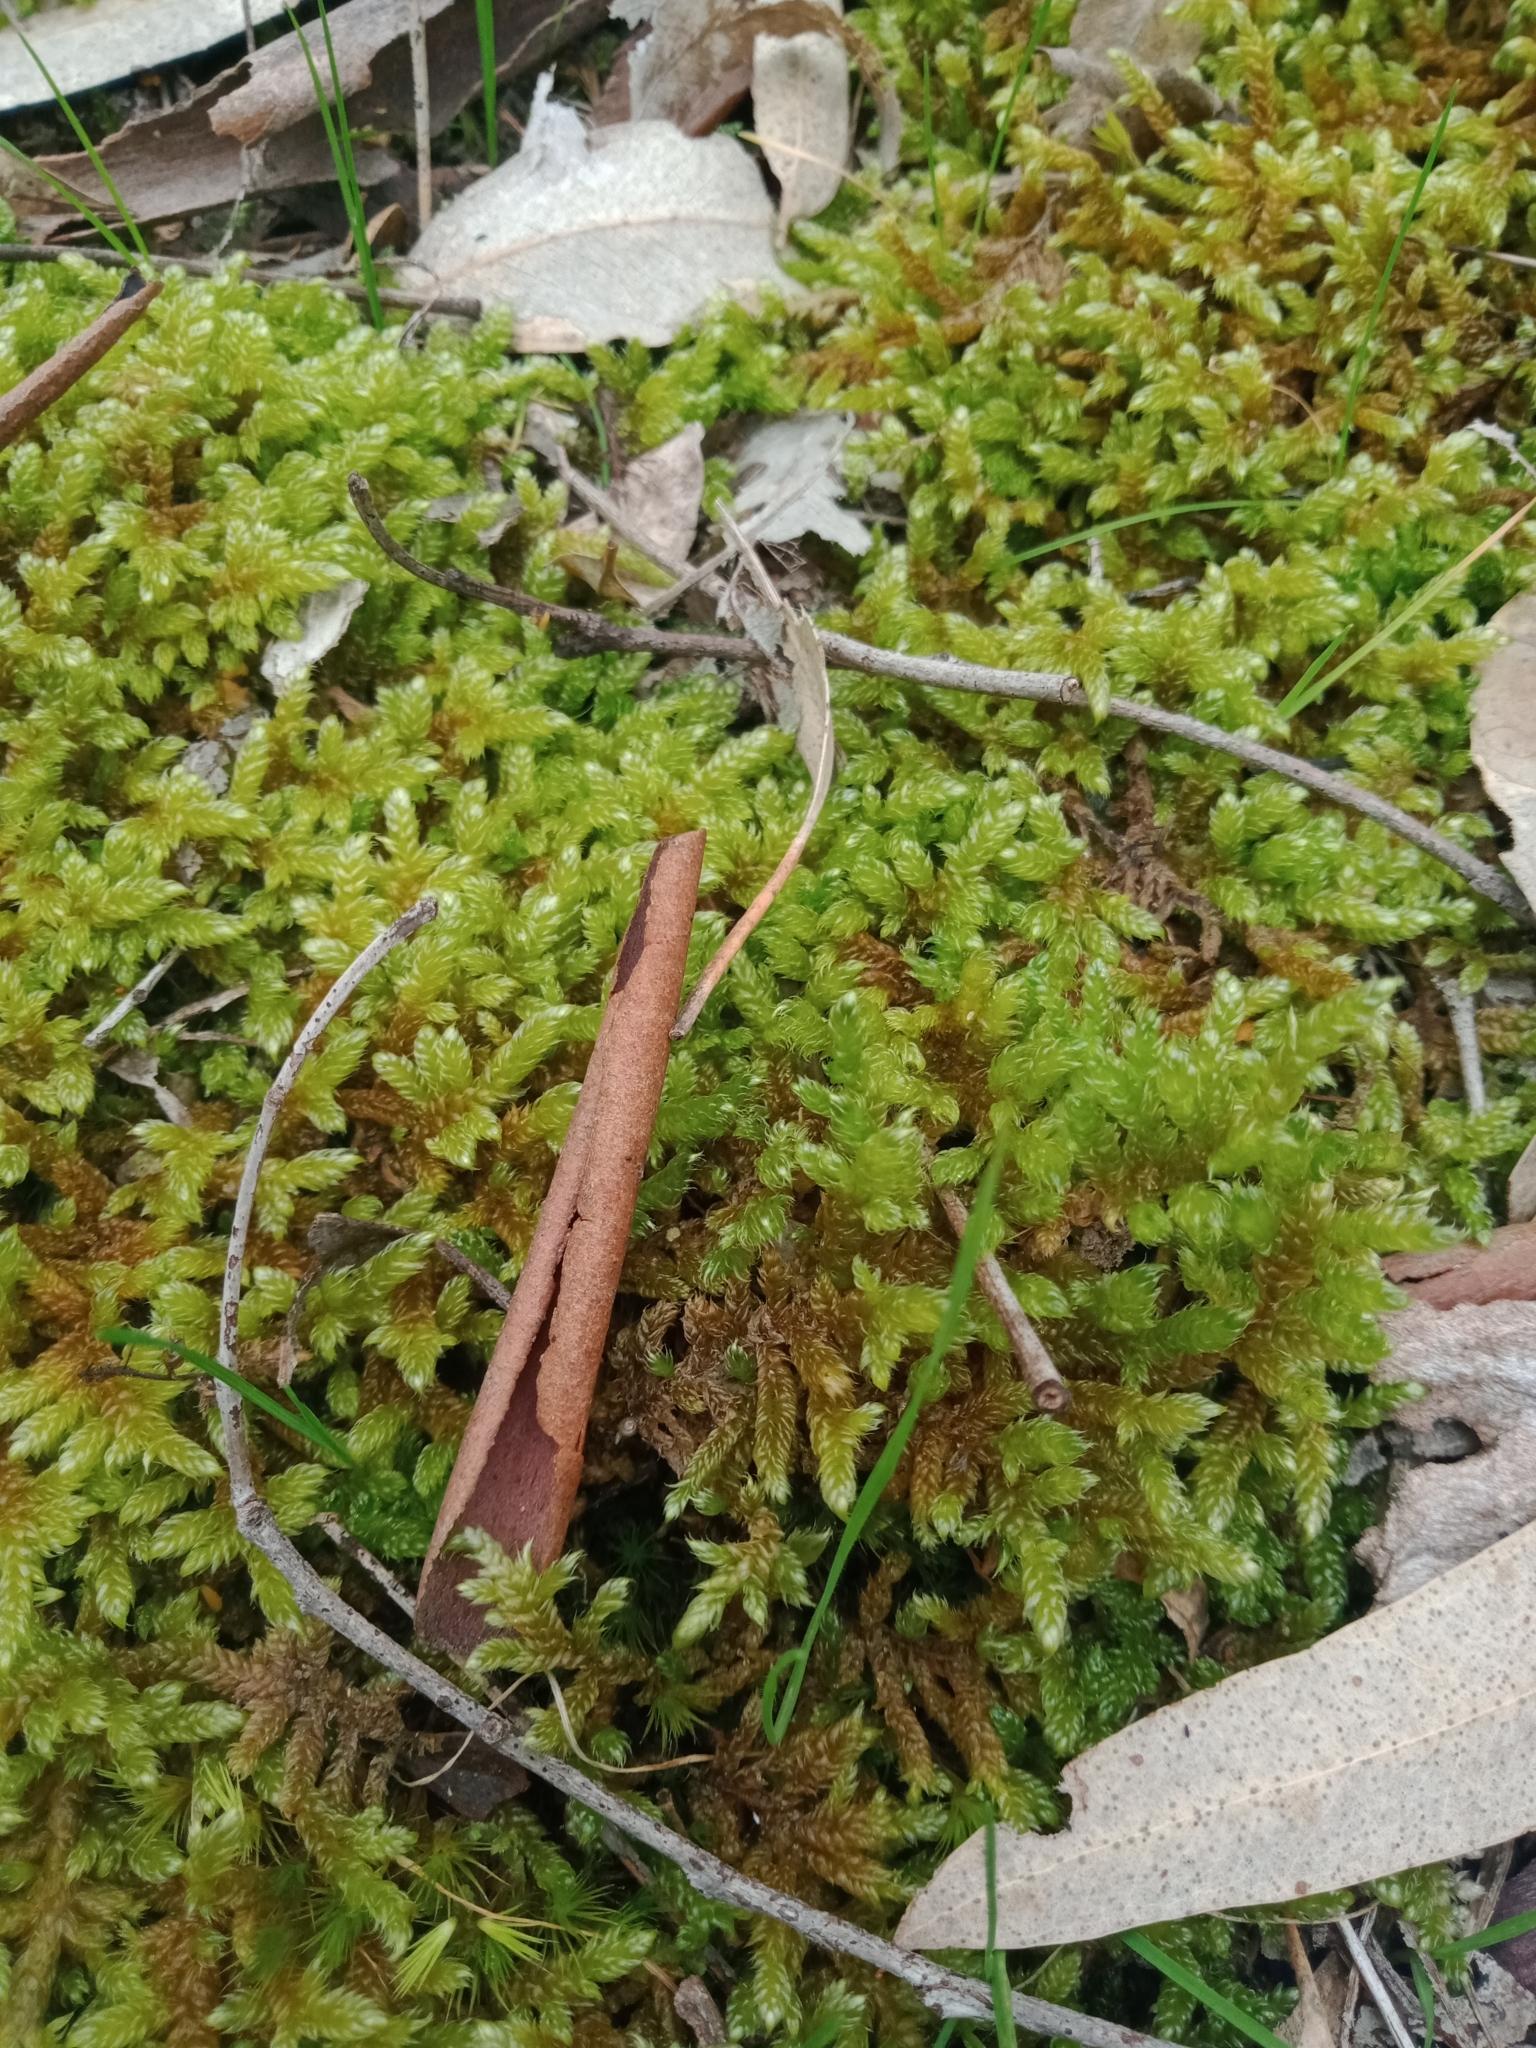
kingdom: Plantae
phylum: Bryophyta
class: Bryopsida
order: Hypnales
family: Hypnaceae
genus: Hypnum
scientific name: Hypnum cupressiforme
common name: Cypress-leaved plait-moss
